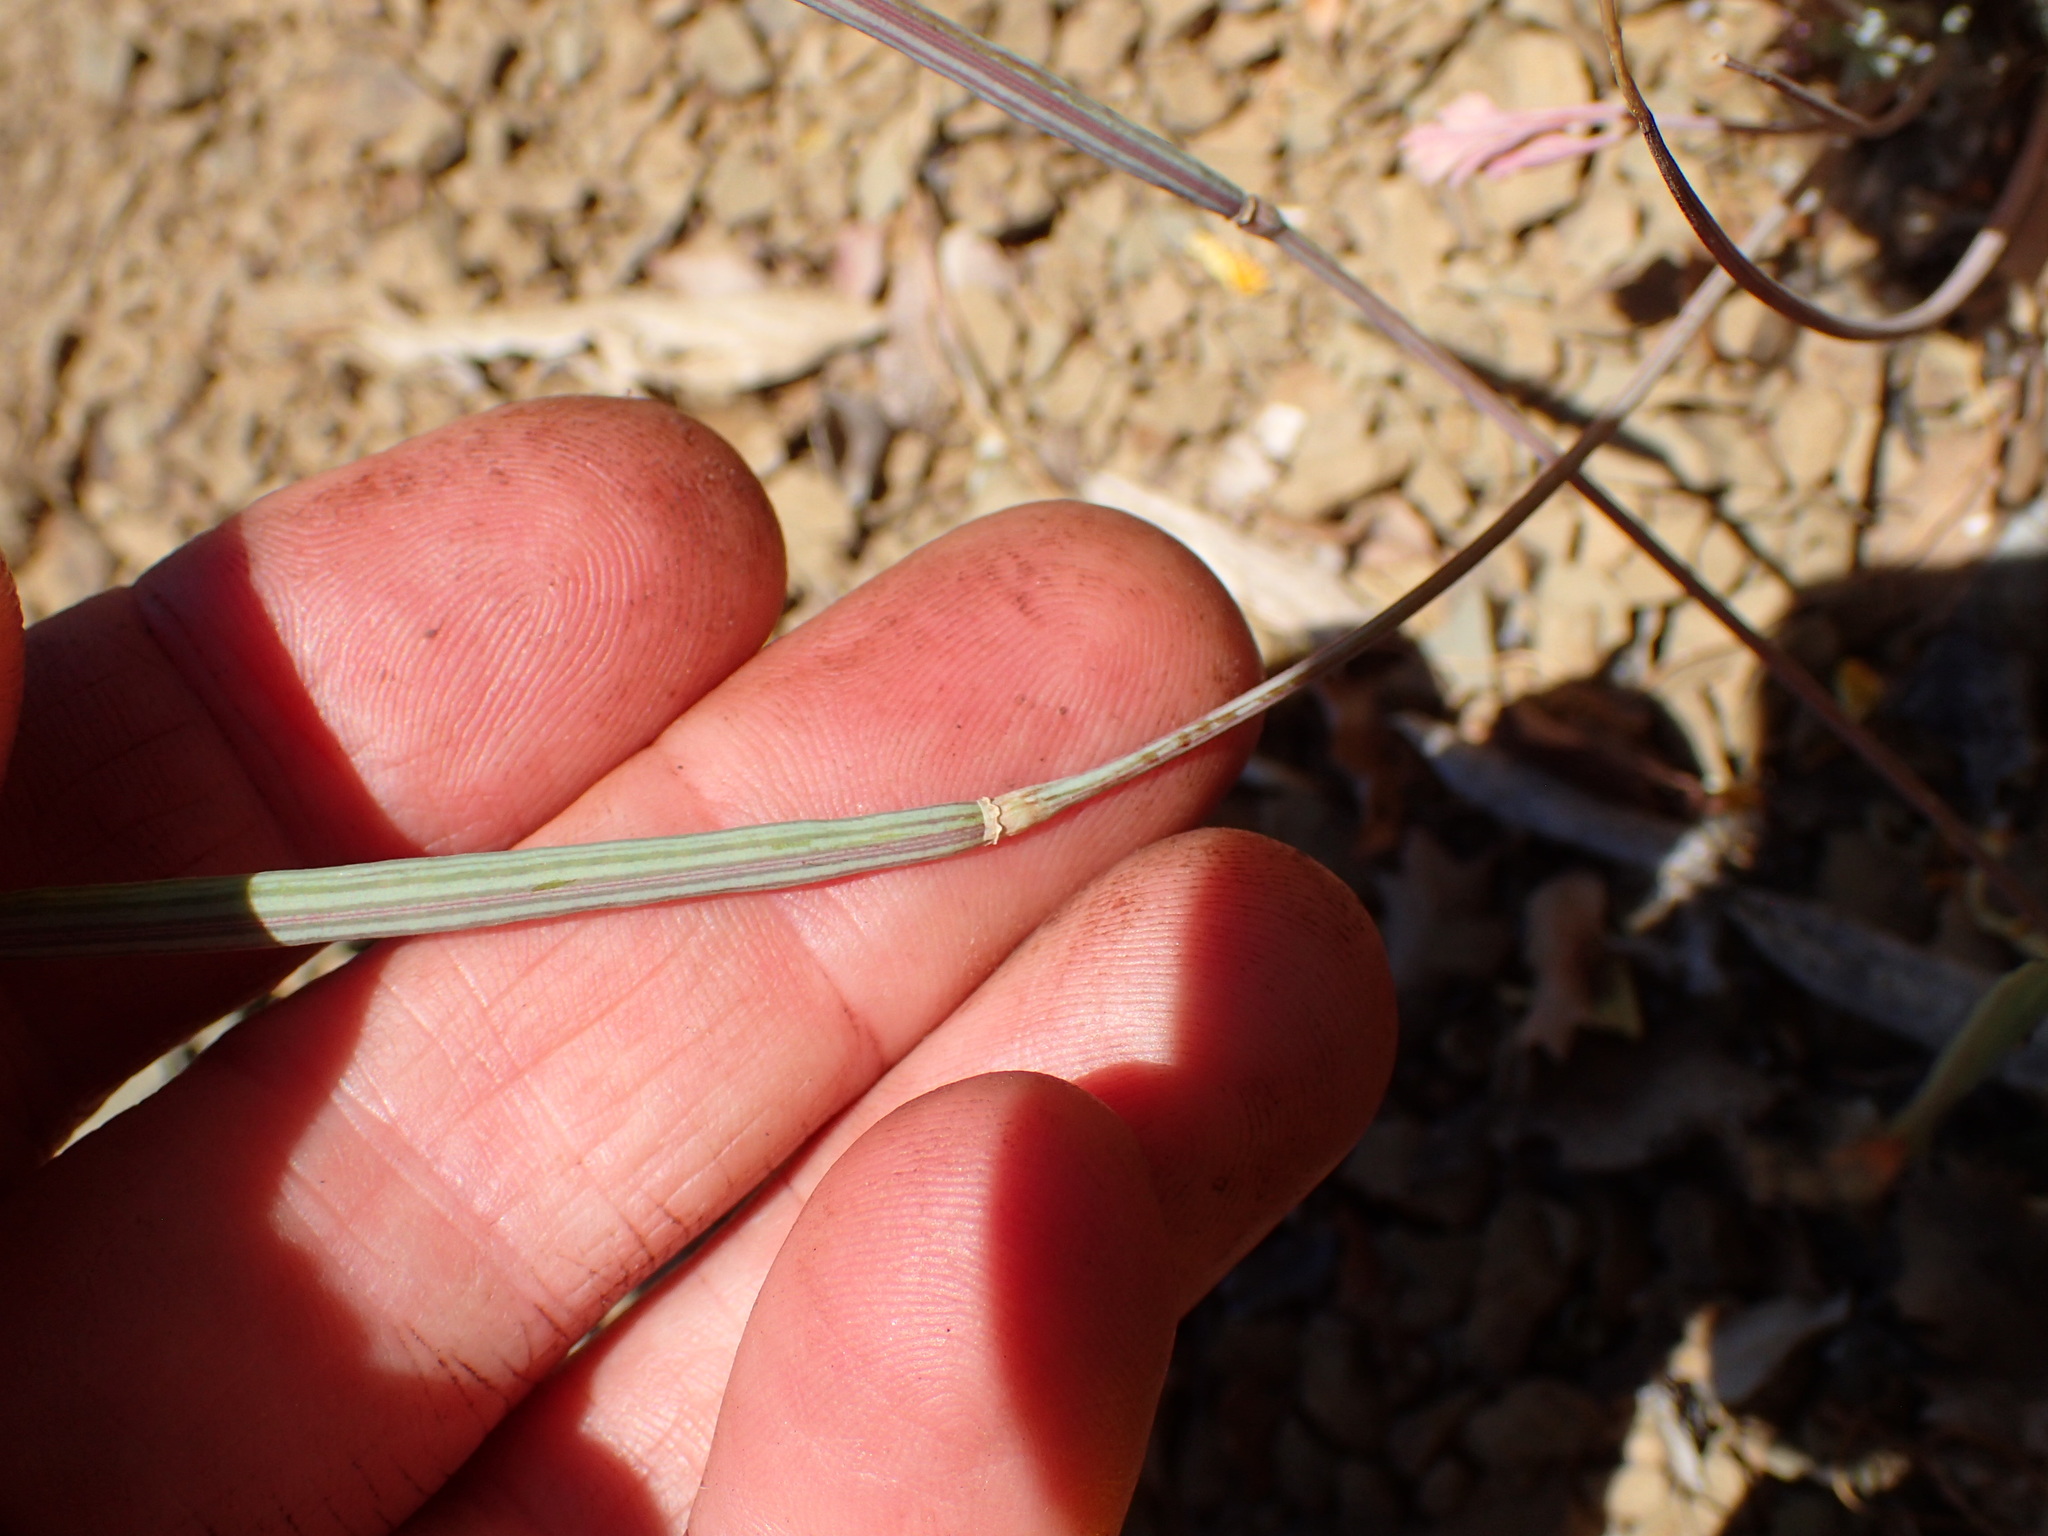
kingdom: Plantae
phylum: Tracheophyta
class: Magnoliopsida
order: Ranunculales
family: Papaveraceae
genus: Eschscholzia
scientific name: Eschscholzia caespitosa
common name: Tufted california-poppy
